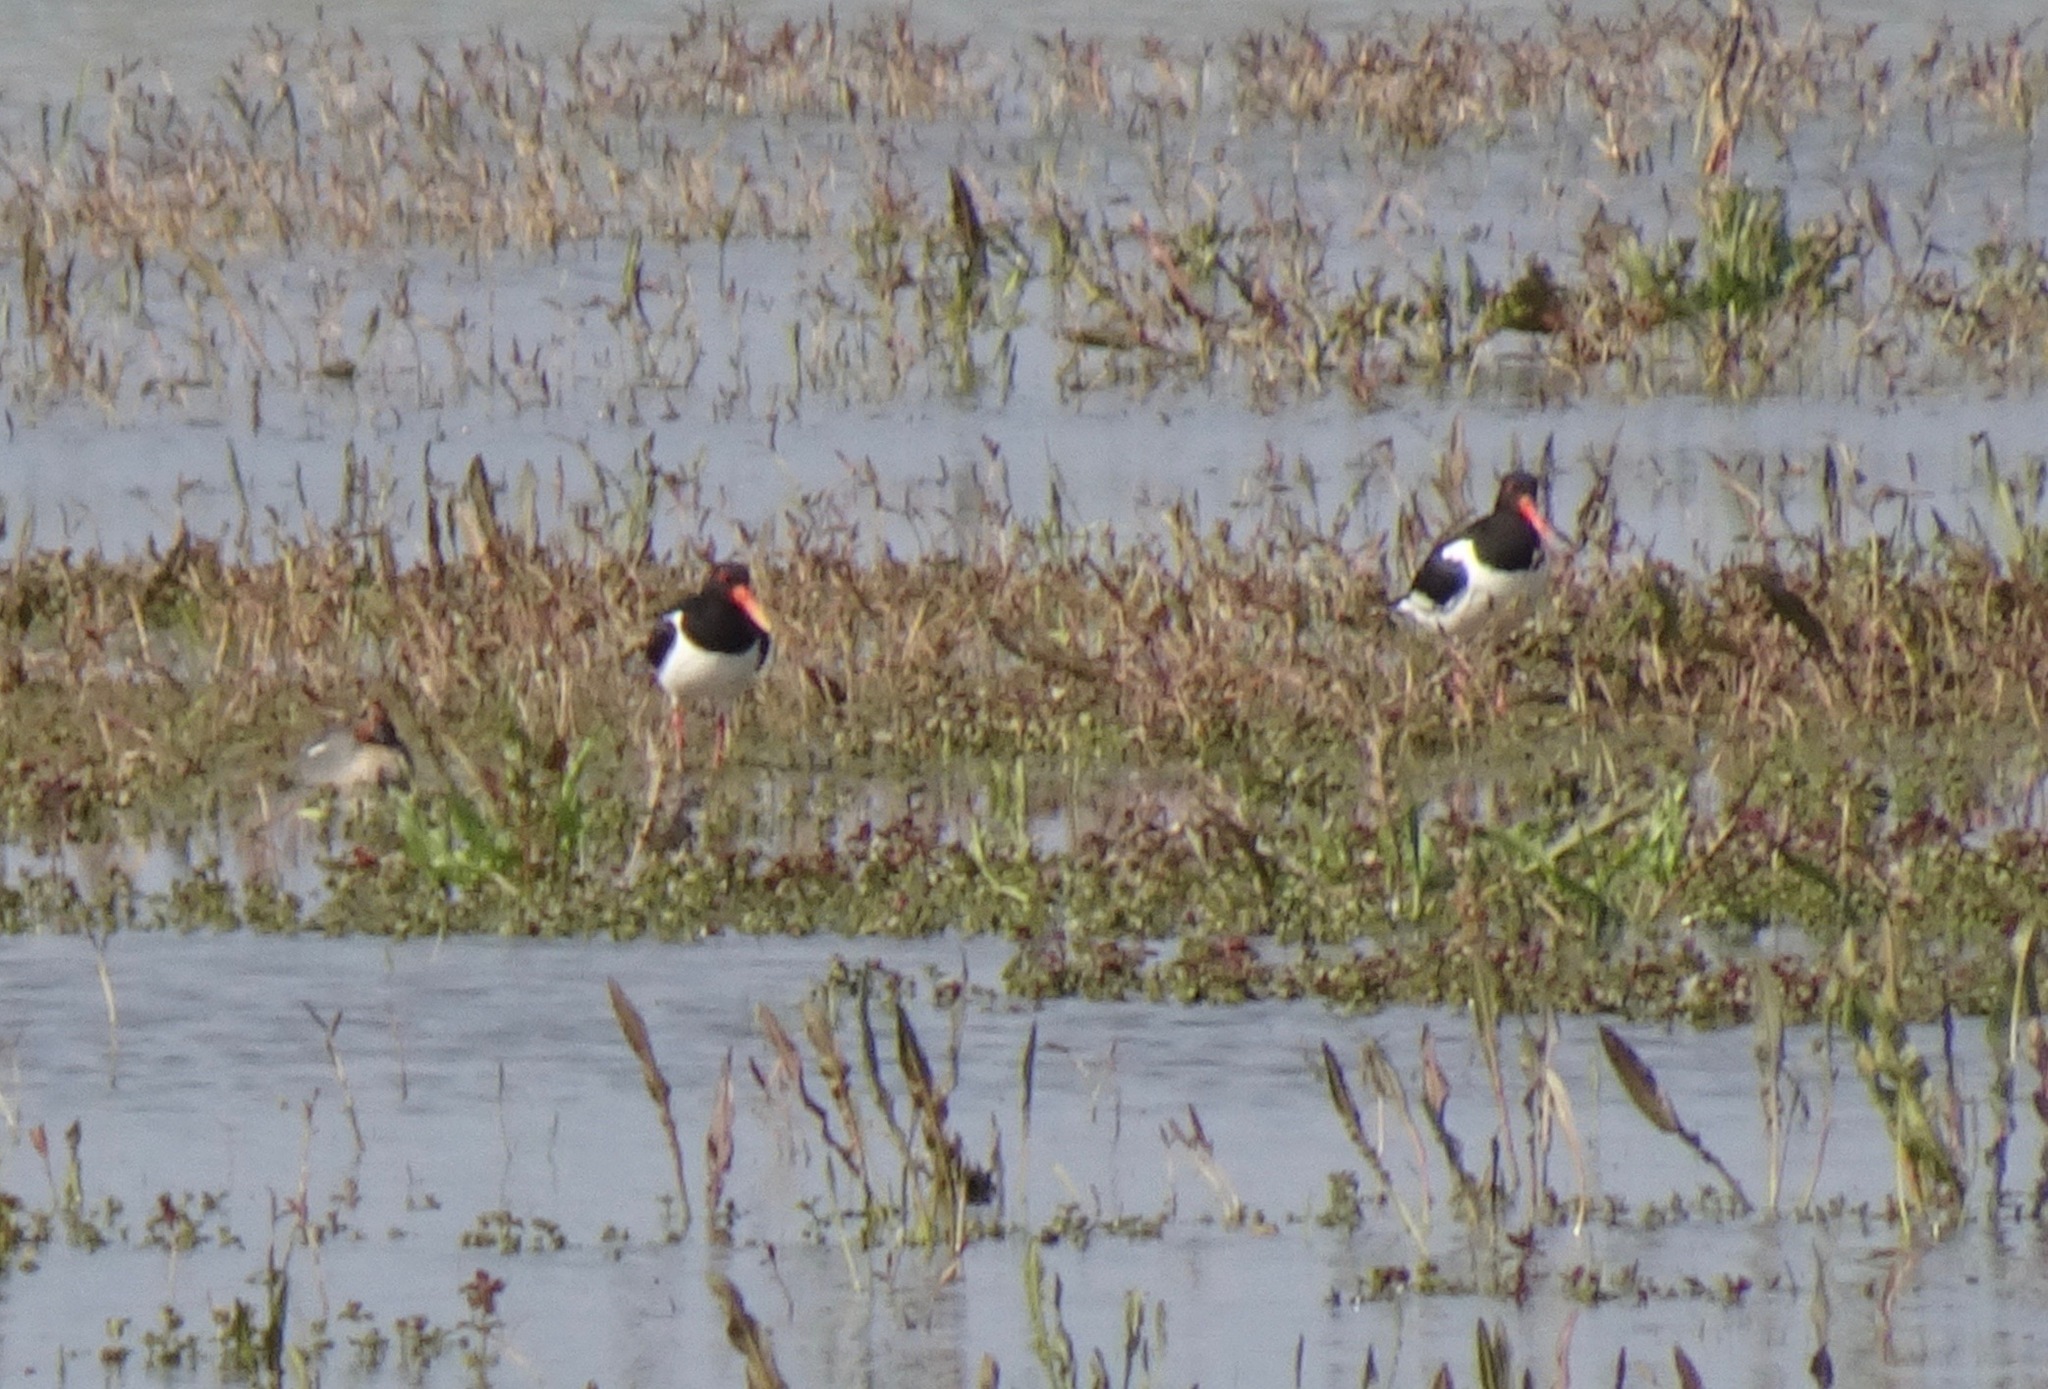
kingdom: Animalia
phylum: Chordata
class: Aves
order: Charadriiformes
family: Haematopodidae
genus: Haematopus
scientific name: Haematopus ostralegus
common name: Eurasian oystercatcher
